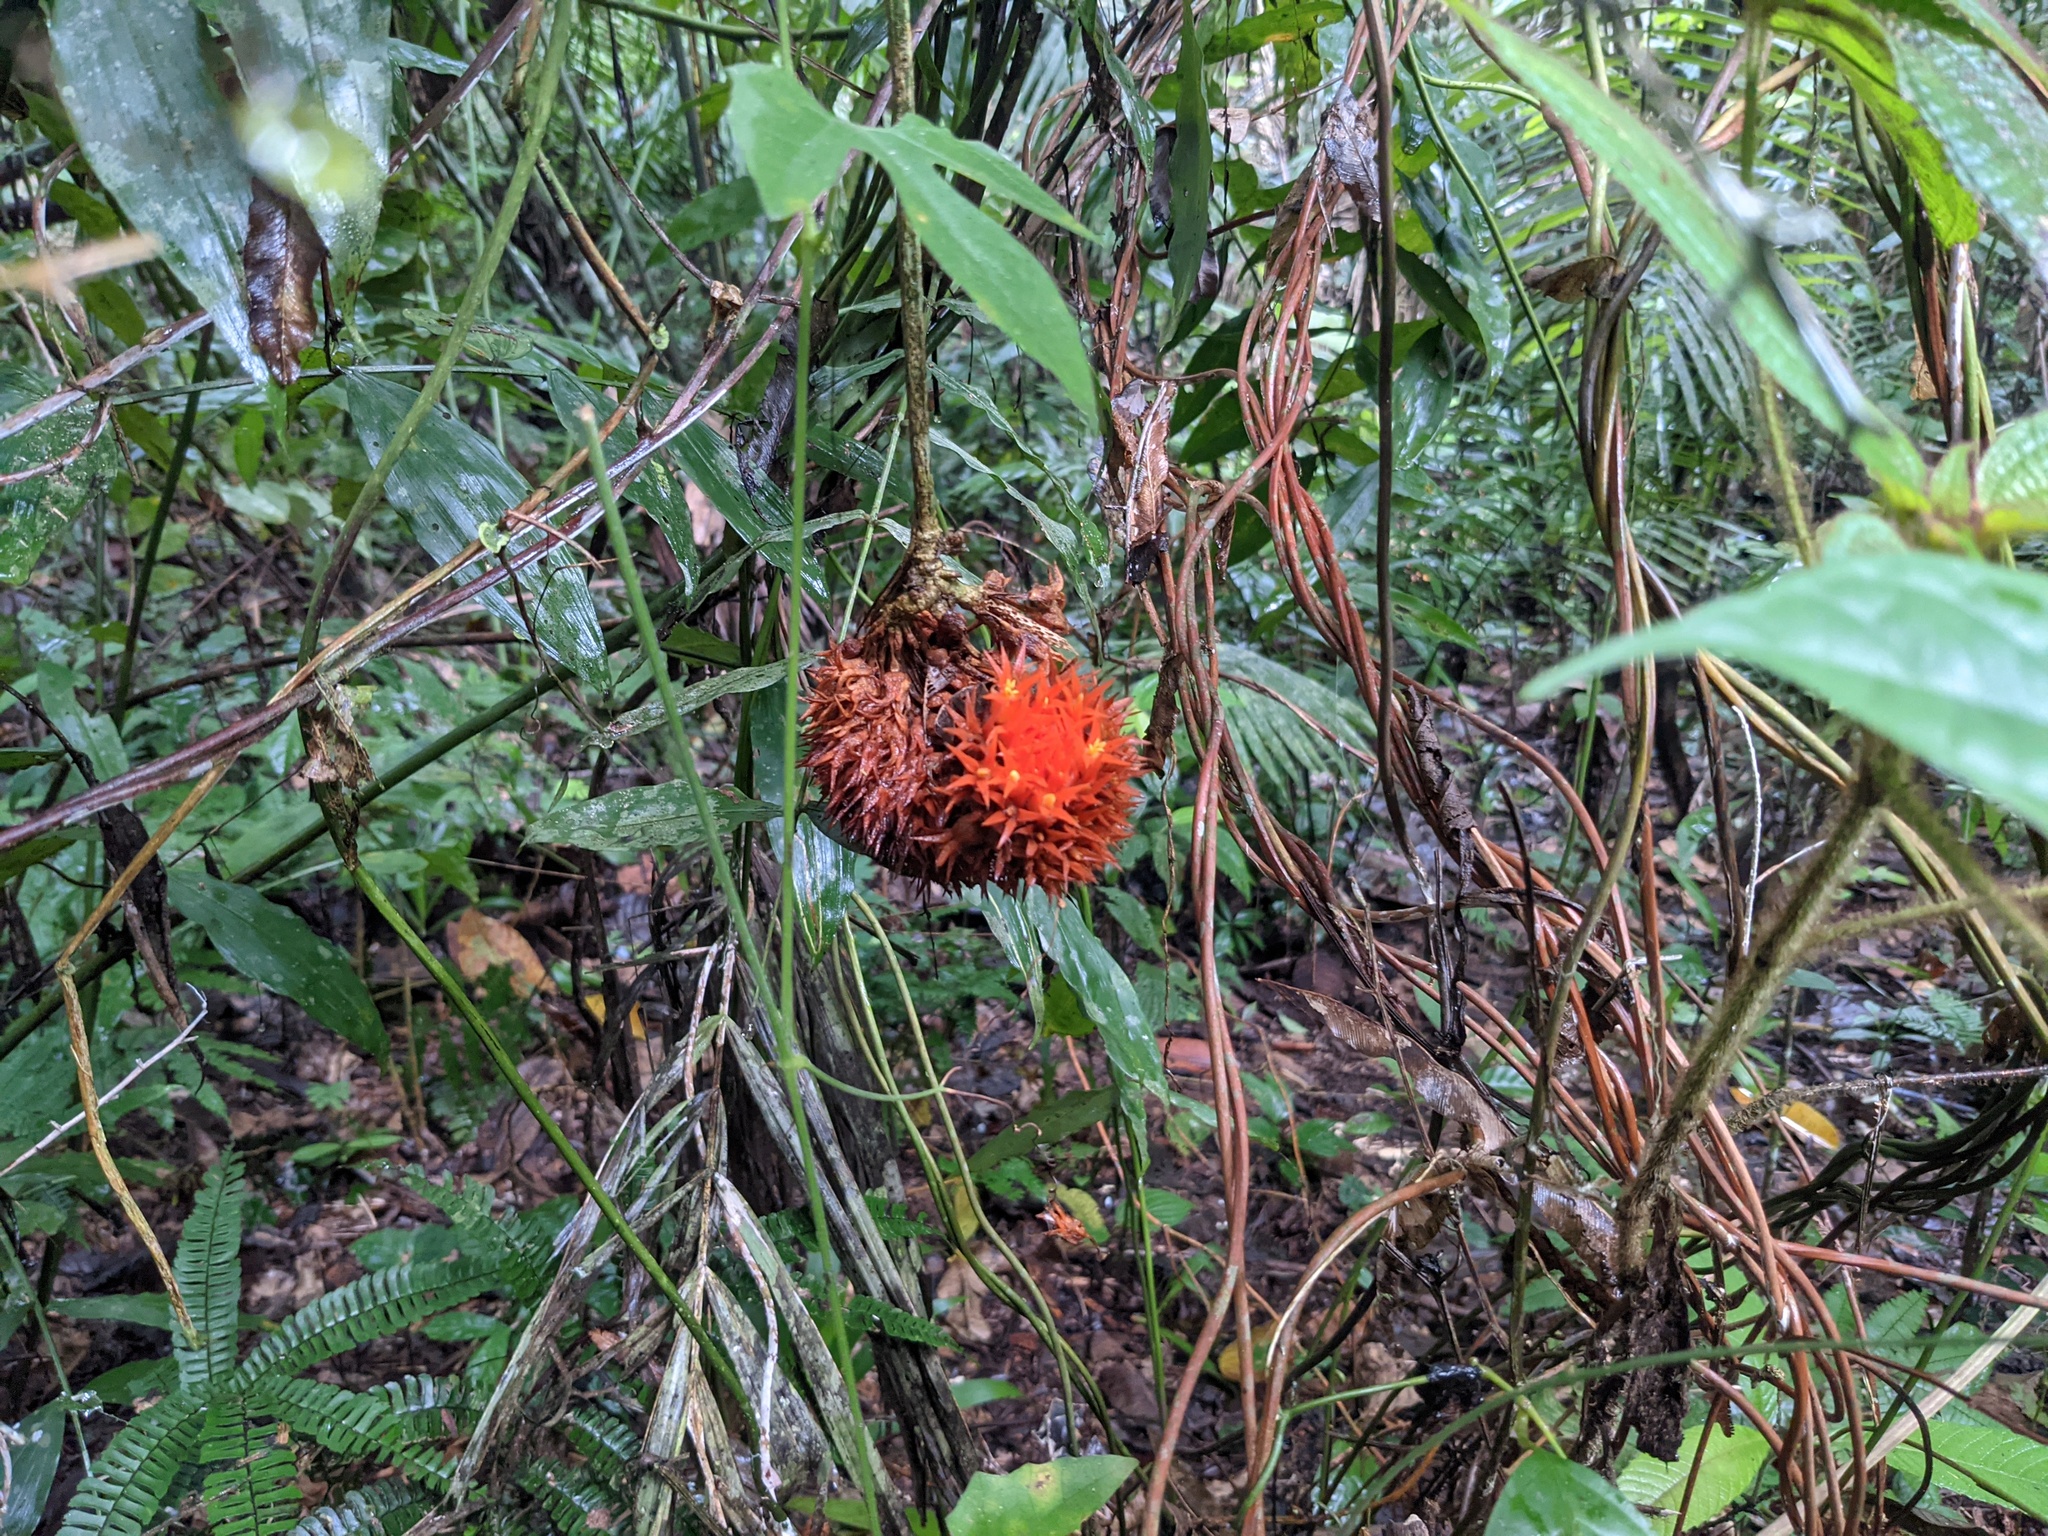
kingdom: Plantae
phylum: Tracheophyta
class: Magnoliopsida
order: Cucurbitales
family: Cucurbitaceae
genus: Gurania
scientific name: Gurania rhizantha
